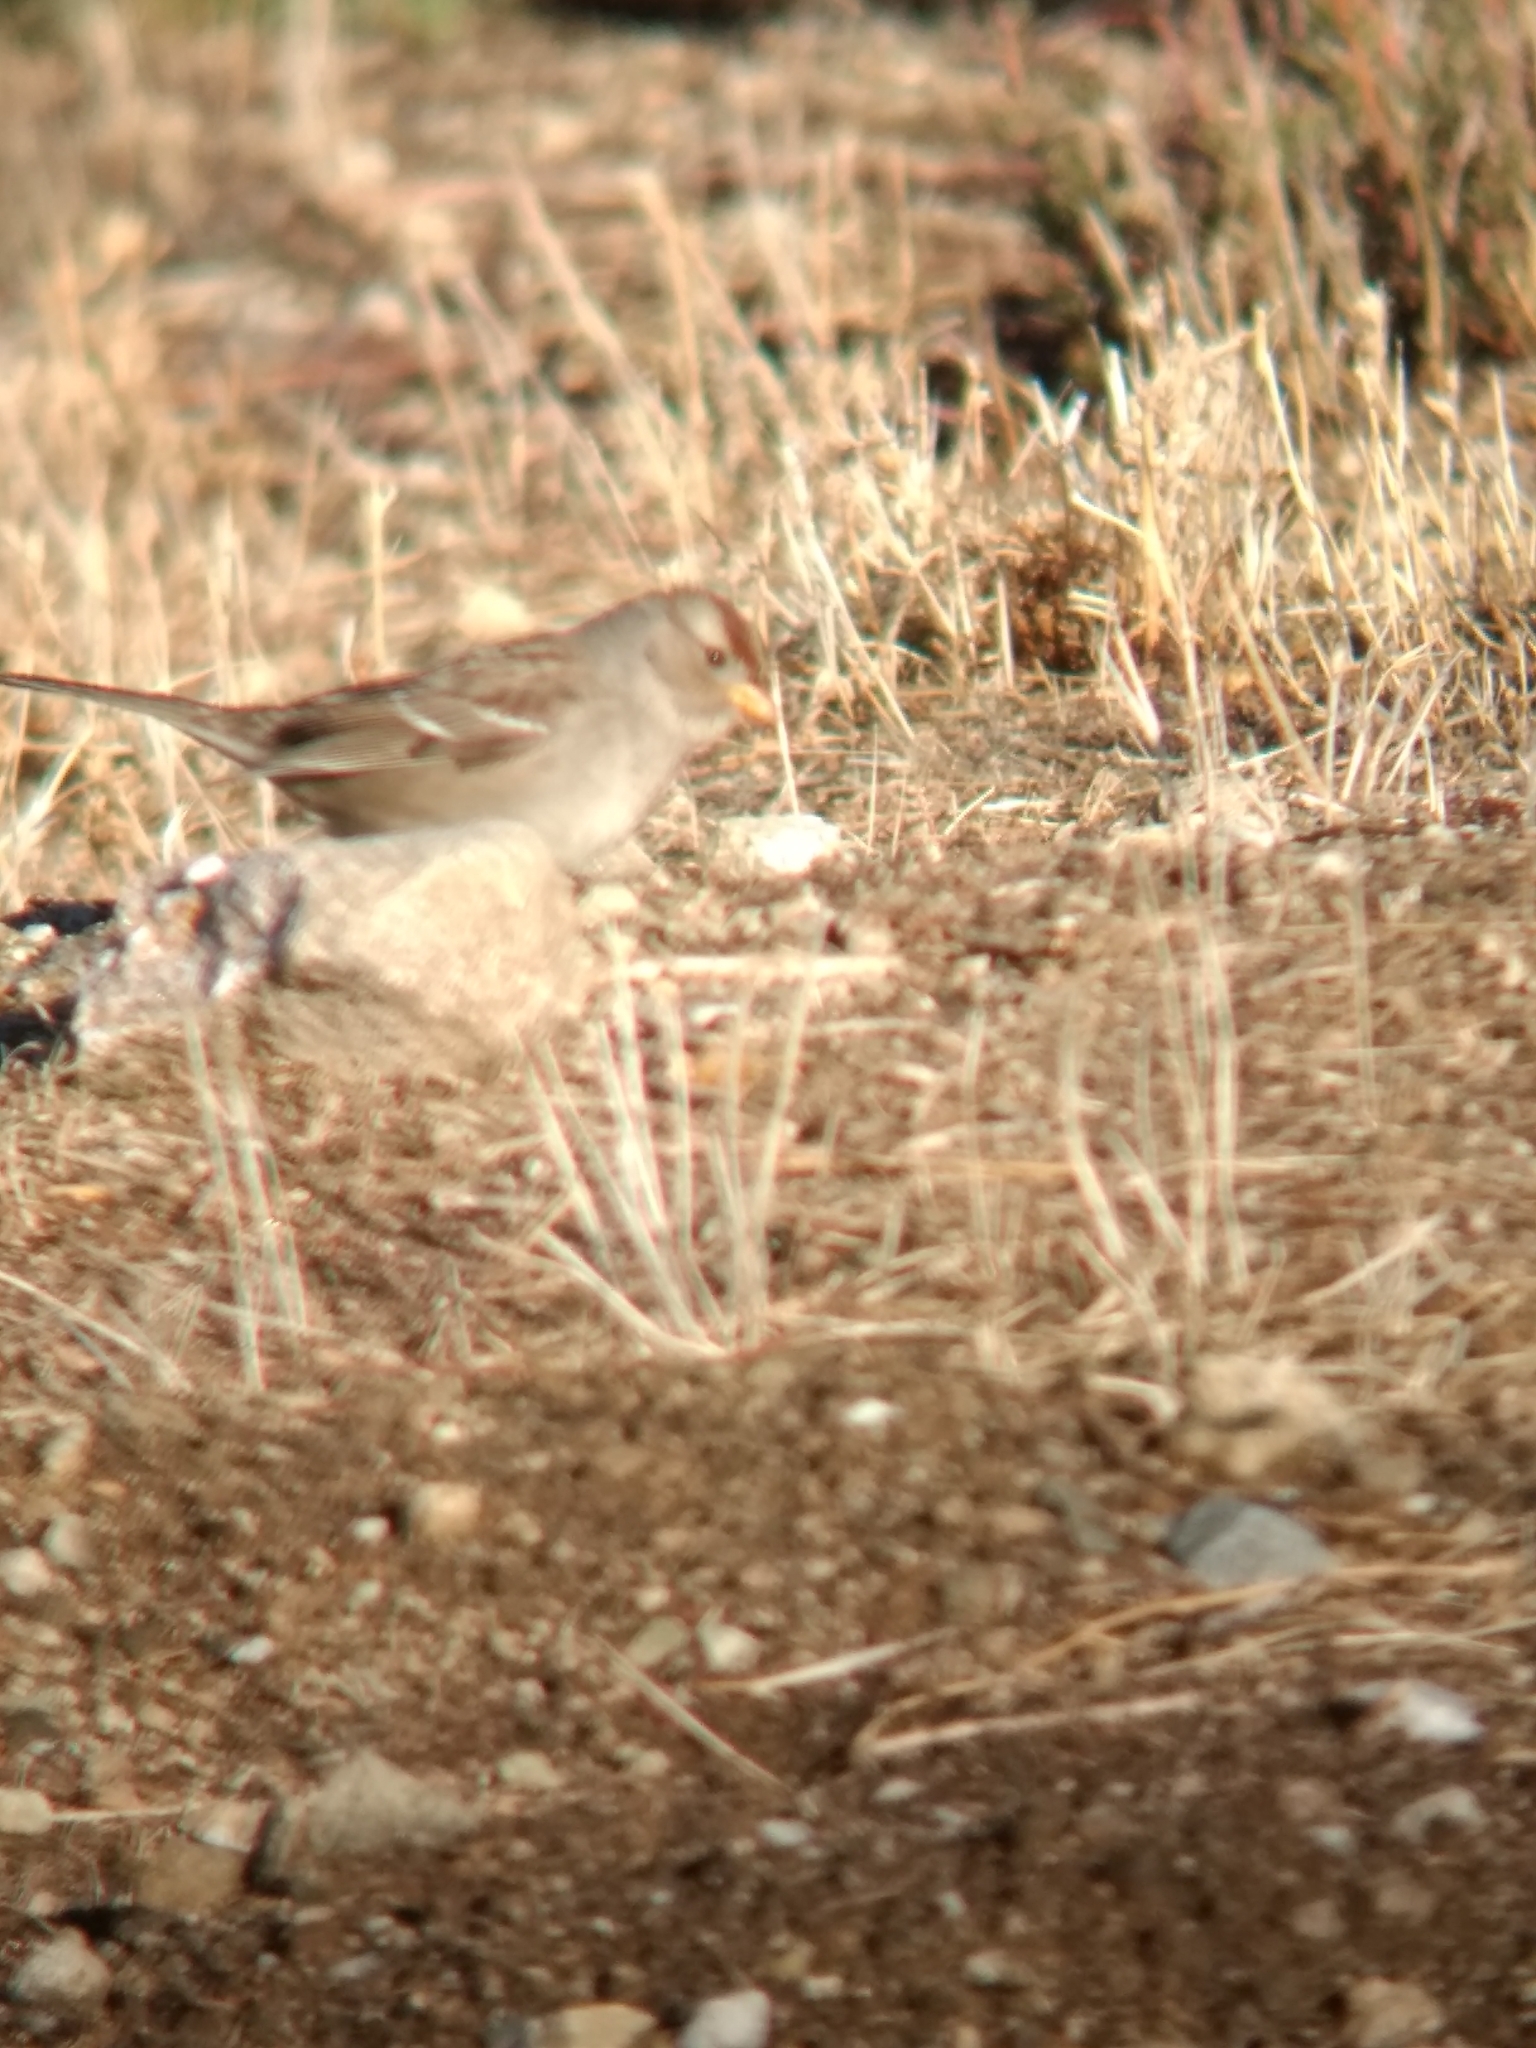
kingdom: Animalia
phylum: Chordata
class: Aves
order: Passeriformes
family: Passerellidae
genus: Zonotrichia
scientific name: Zonotrichia leucophrys
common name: White-crowned sparrow
